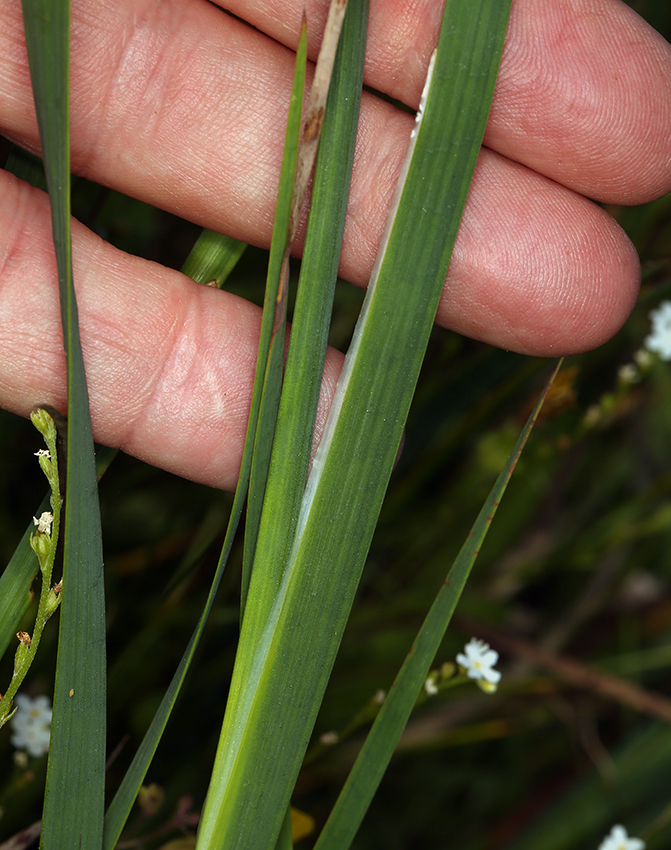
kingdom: Plantae
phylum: Tracheophyta
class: Liliopsida
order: Poales
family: Juncaceae
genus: Juncus
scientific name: Juncus oxymeris
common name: Pointed rush
